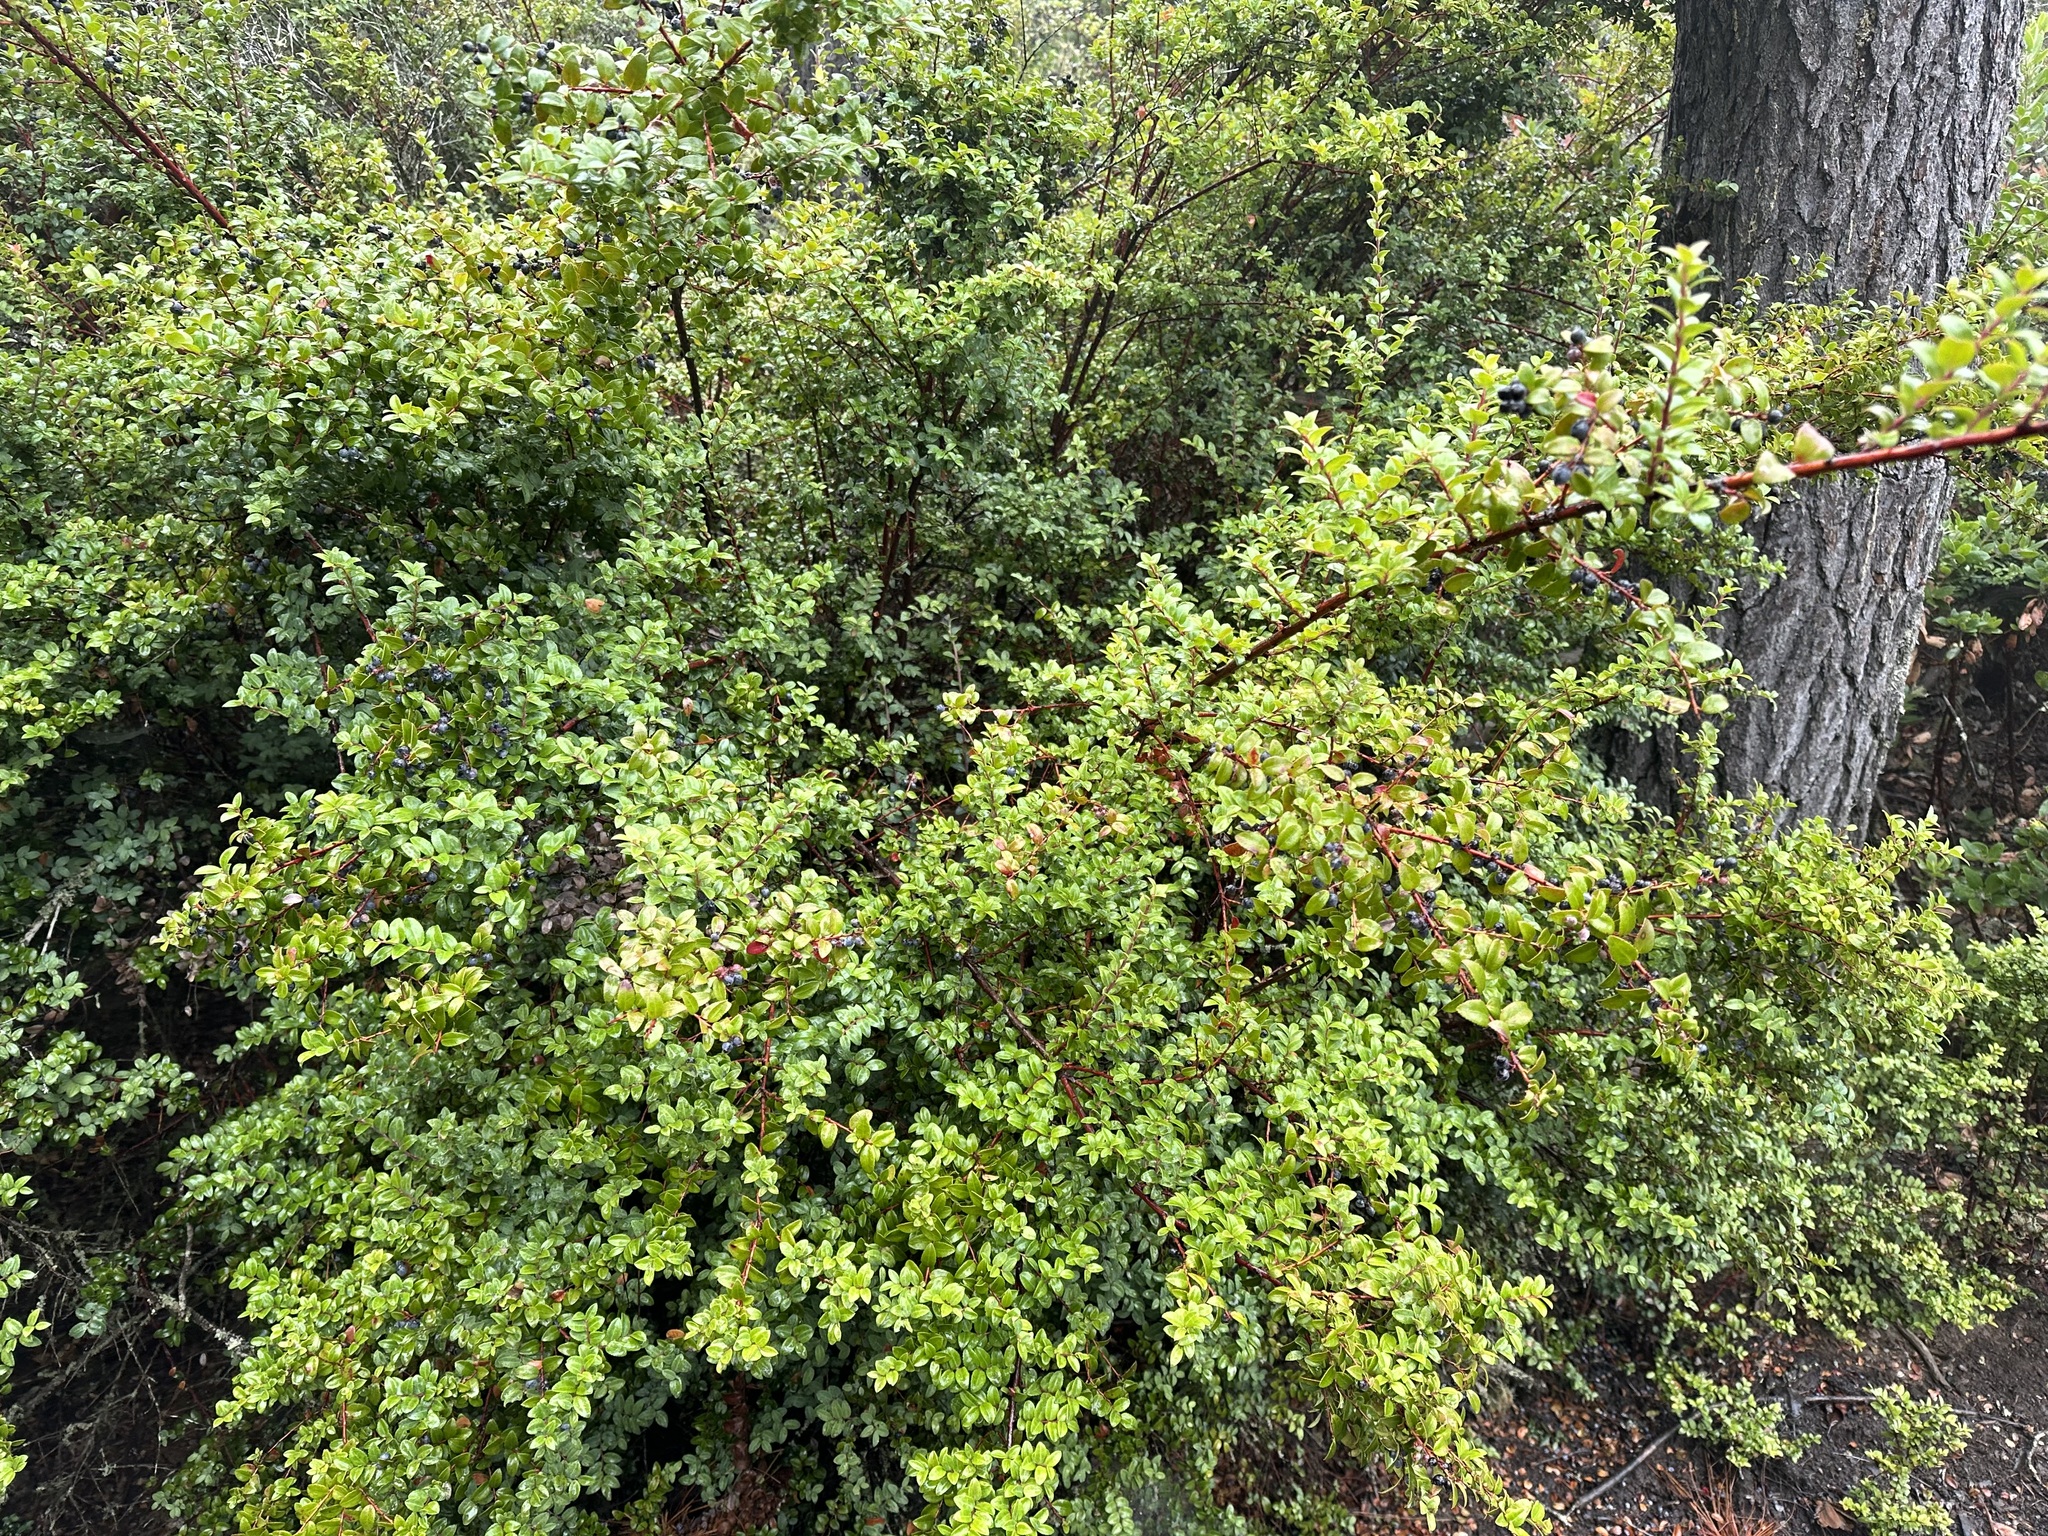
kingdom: Plantae
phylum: Tracheophyta
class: Magnoliopsida
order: Ericales
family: Ericaceae
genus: Vaccinium
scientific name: Vaccinium ovatum
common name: California-huckleberry
